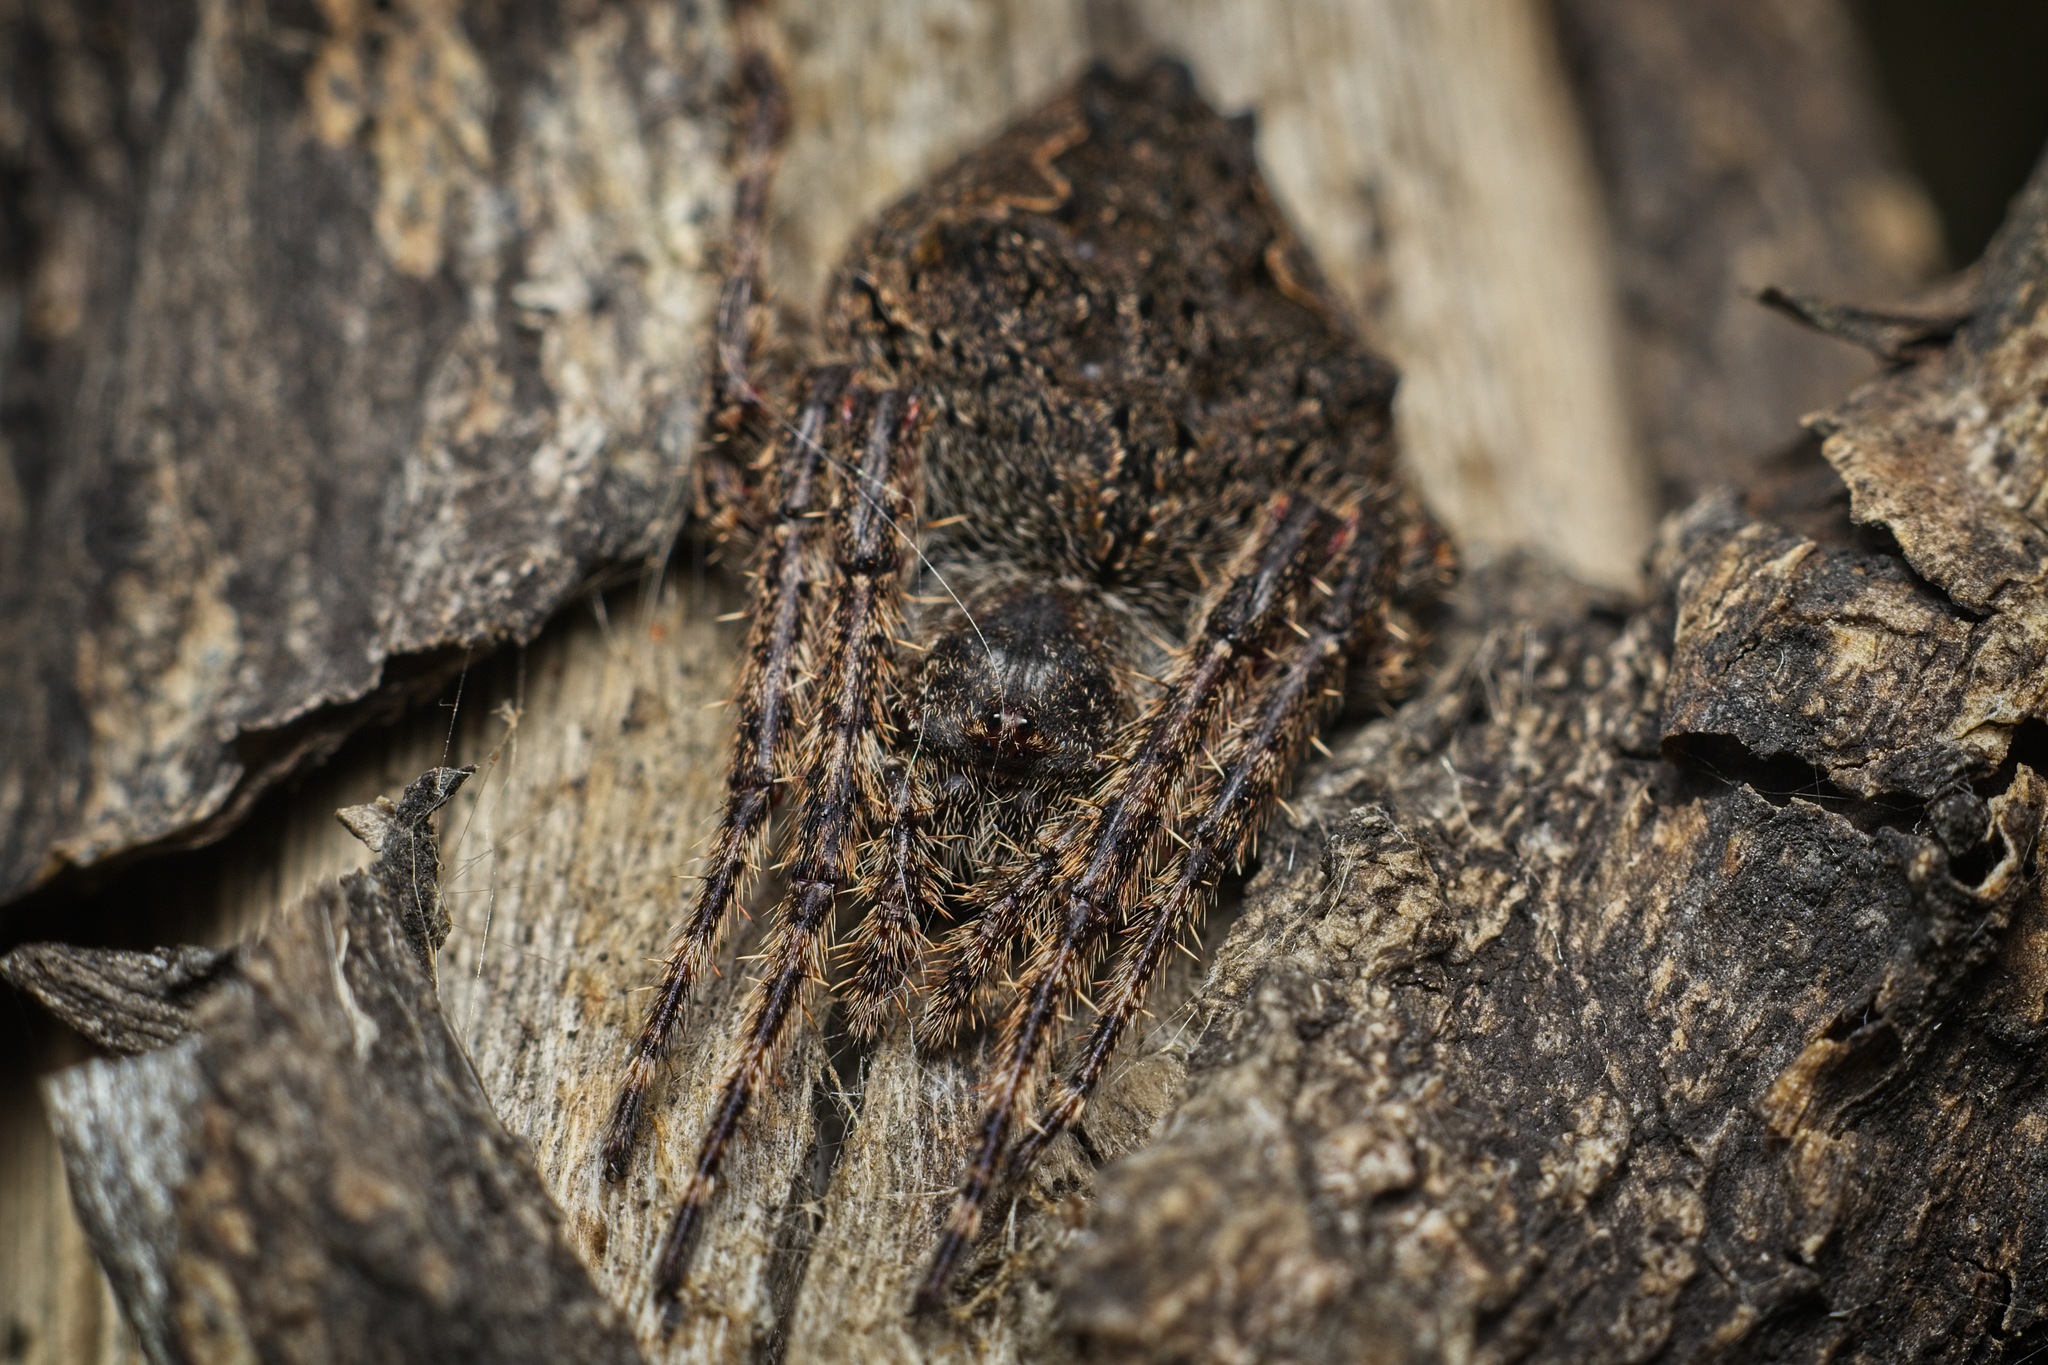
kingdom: Animalia
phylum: Arthropoda
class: Arachnida
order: Araneae
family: Araneidae
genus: Eriophora
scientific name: Eriophora pustulosa
